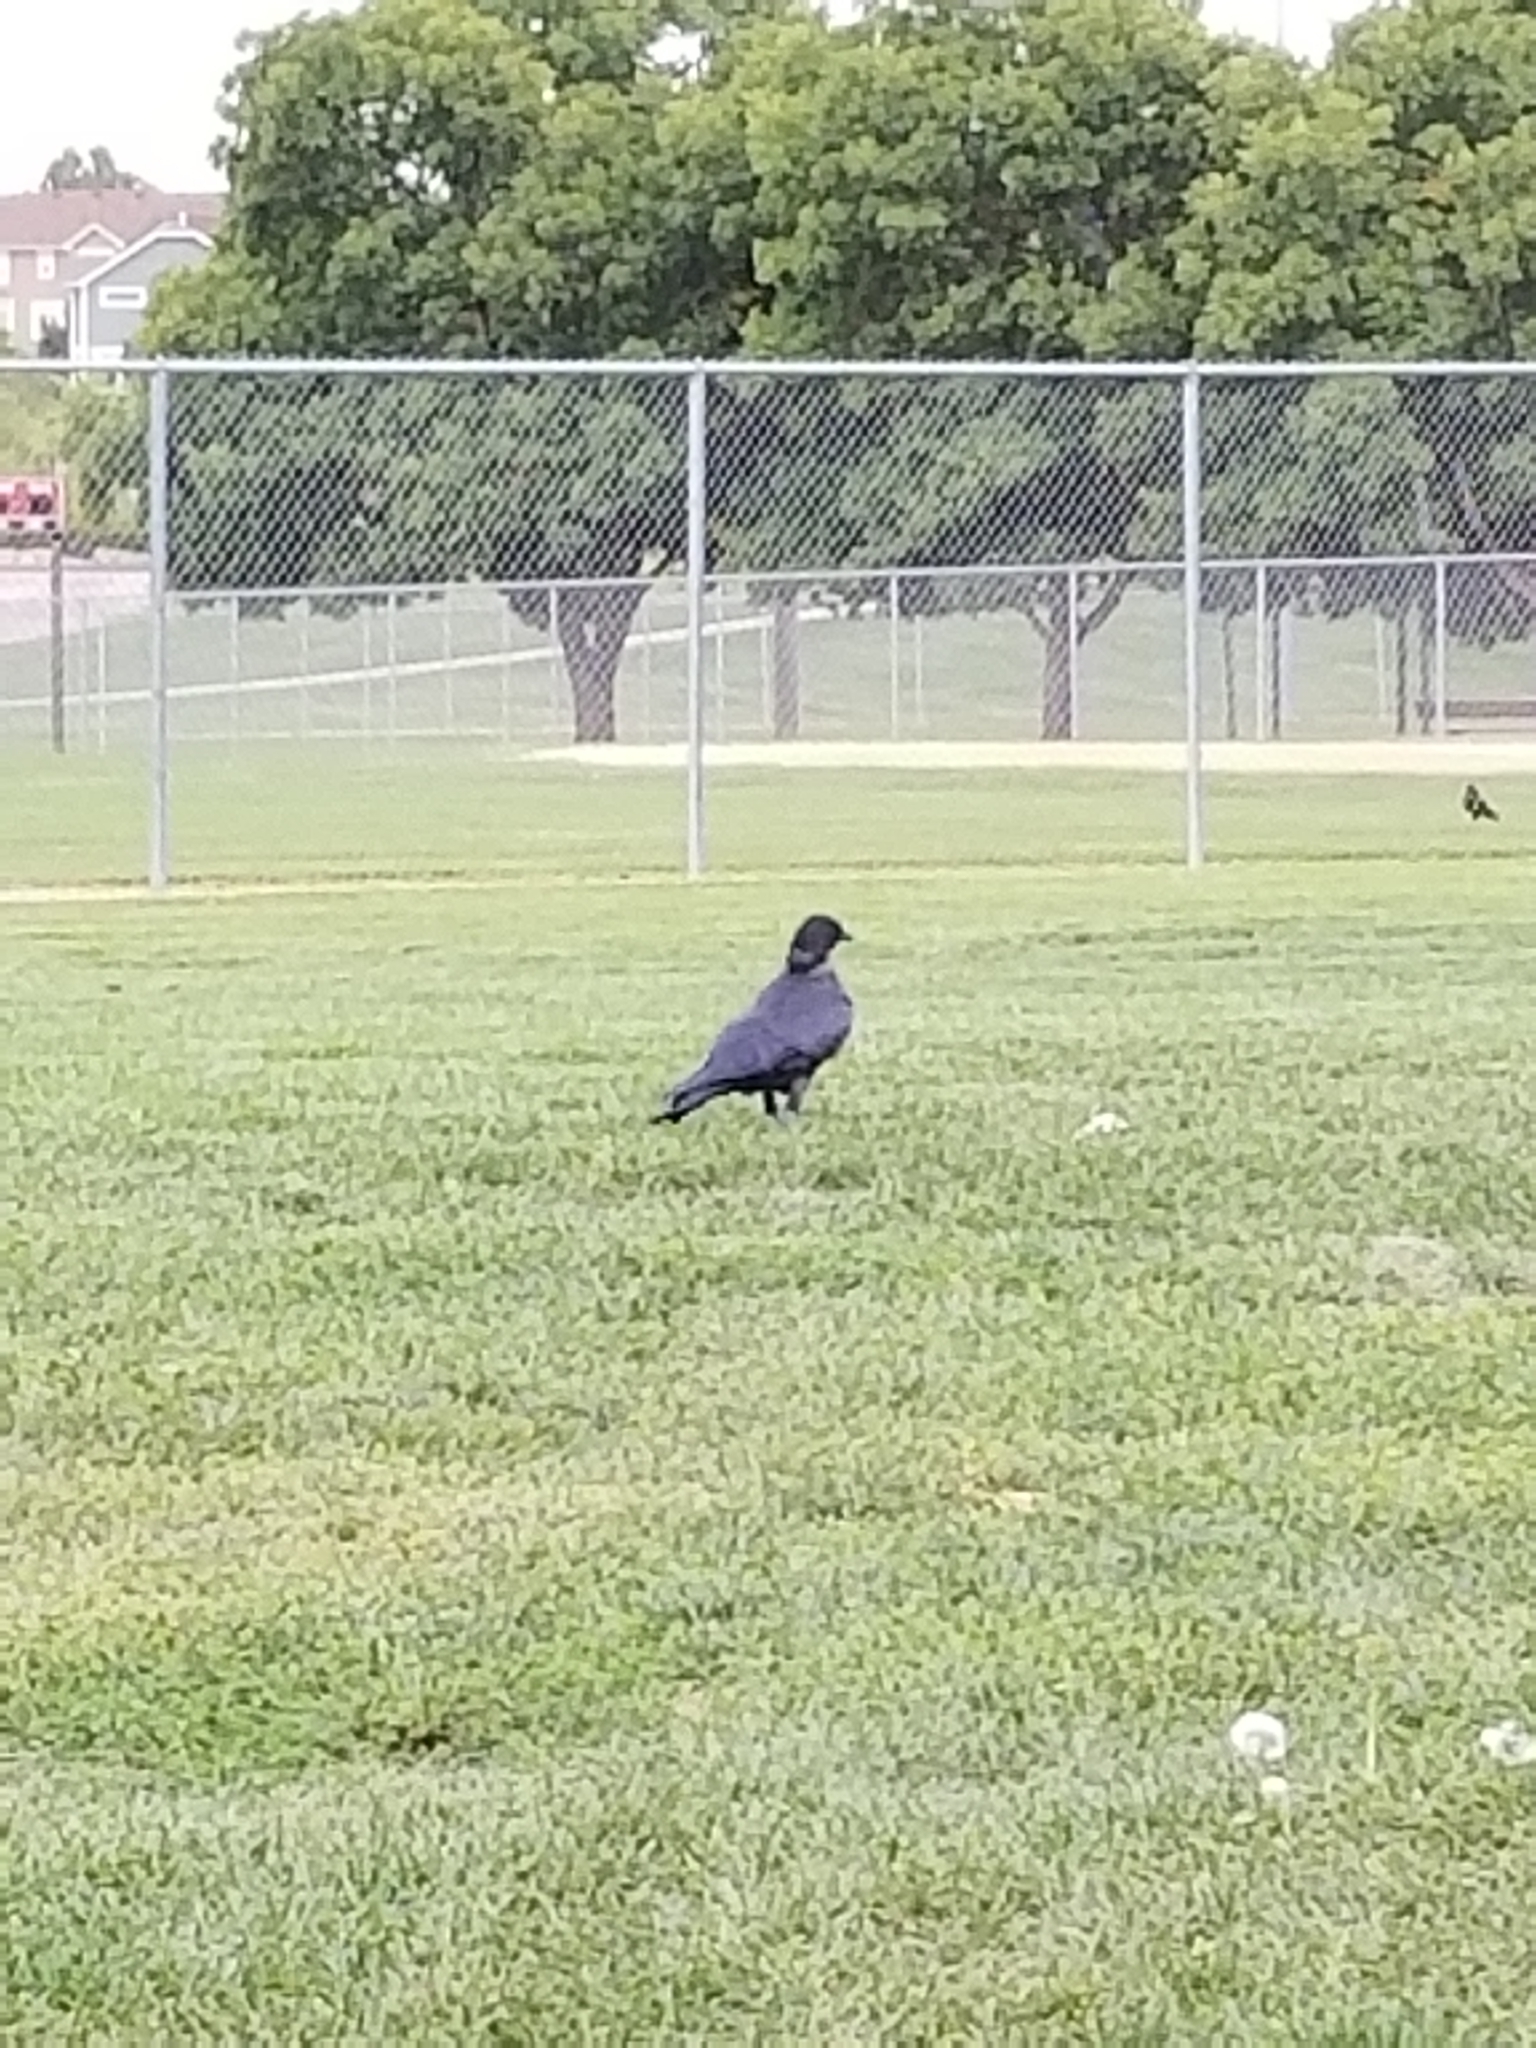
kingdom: Animalia
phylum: Chordata
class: Aves
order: Passeriformes
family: Corvidae
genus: Corvus
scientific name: Corvus brachyrhynchos
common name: American crow
